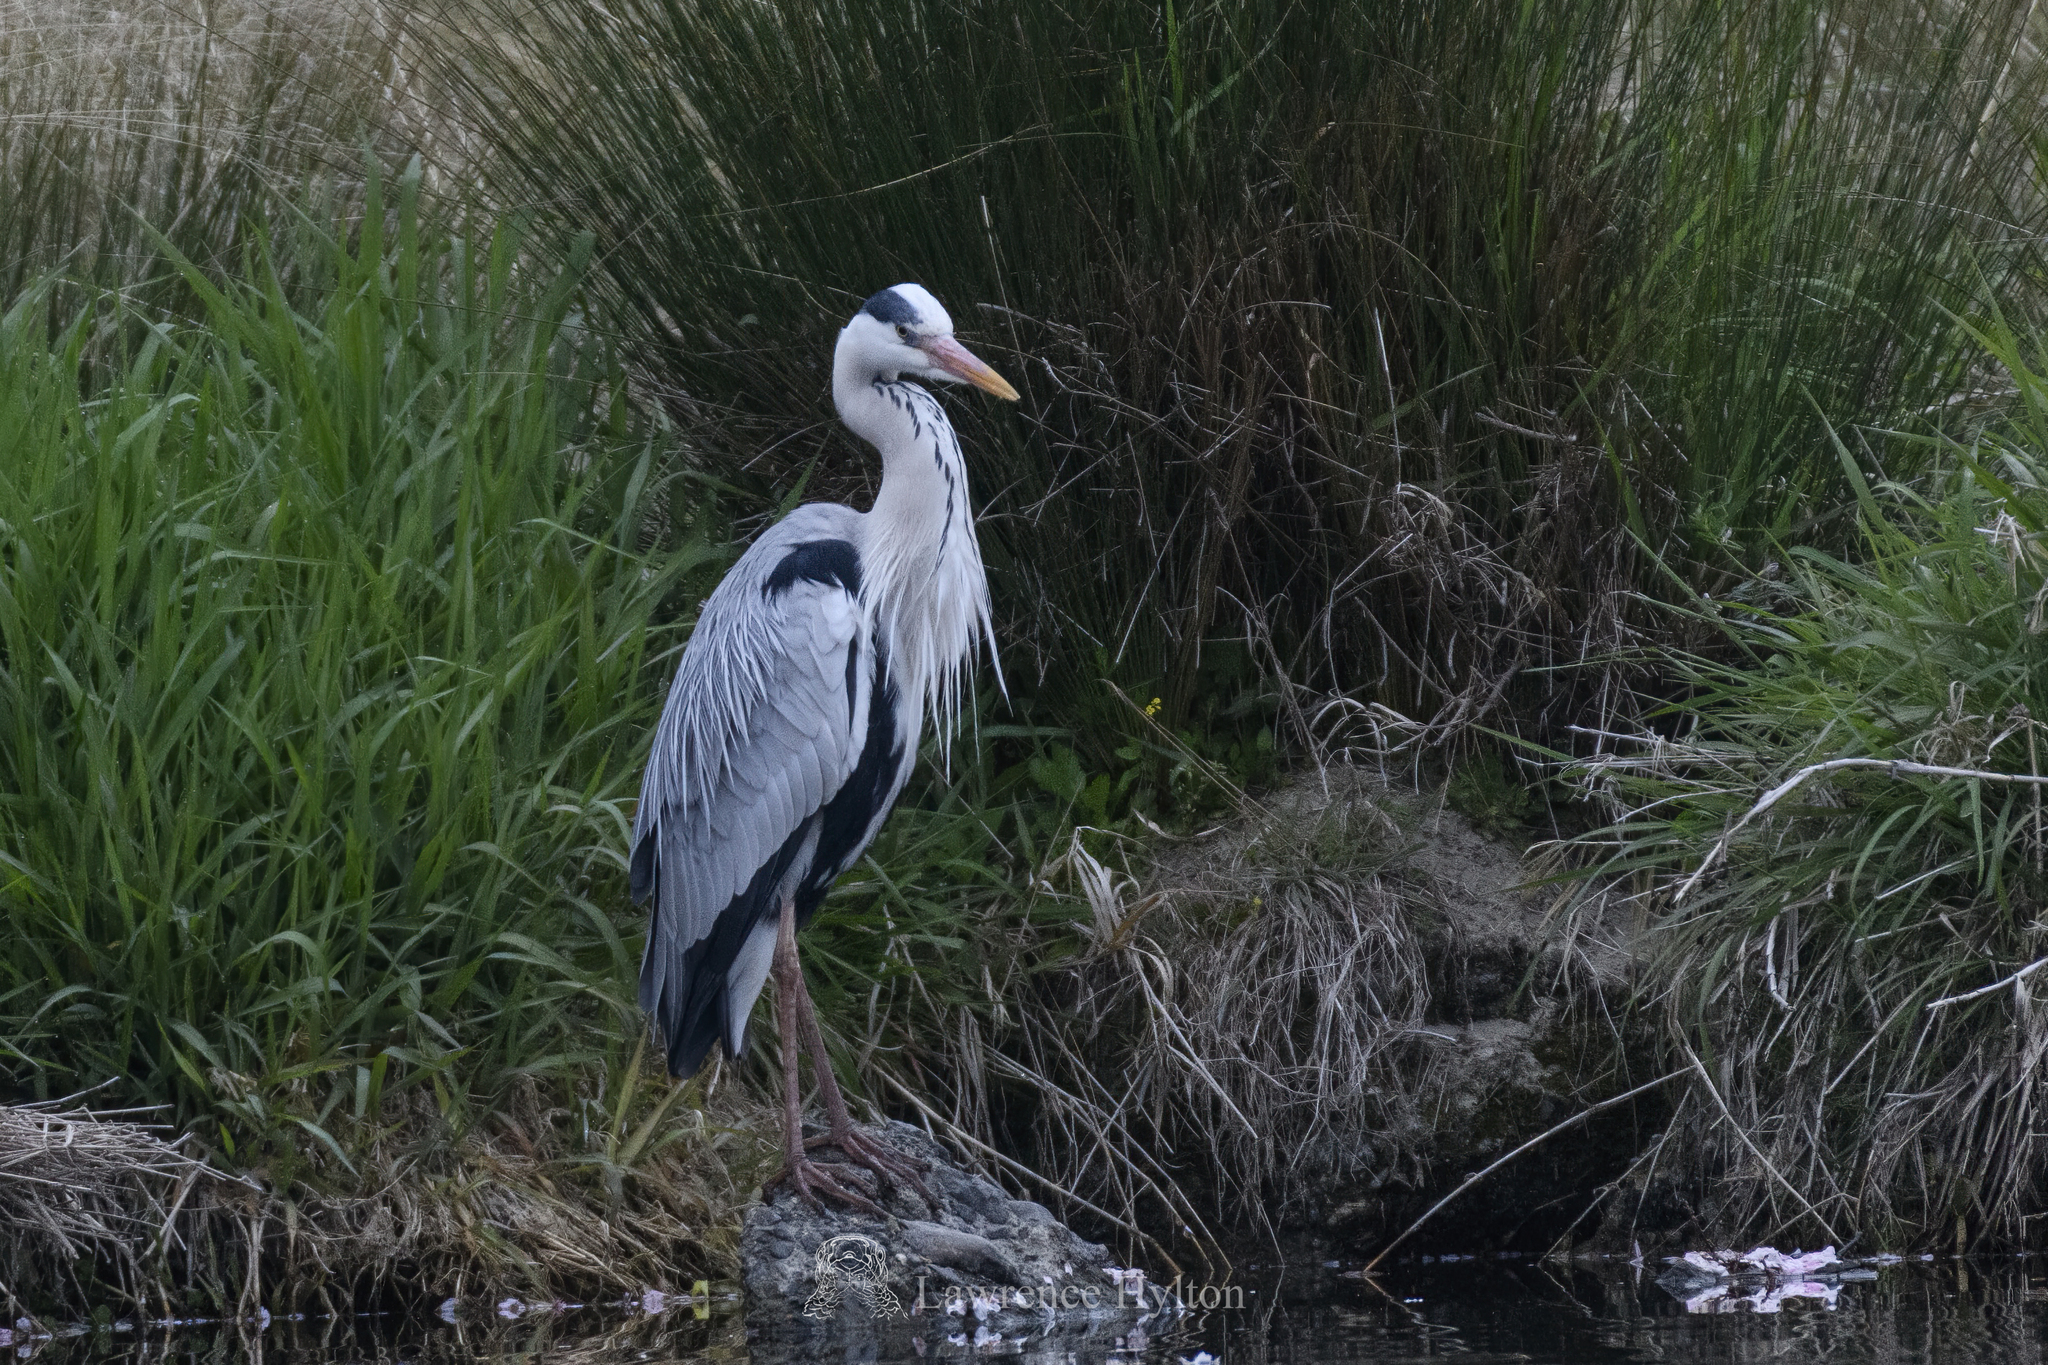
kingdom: Animalia
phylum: Chordata
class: Aves
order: Pelecaniformes
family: Ardeidae
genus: Ardea
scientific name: Ardea cinerea
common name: Grey heron
